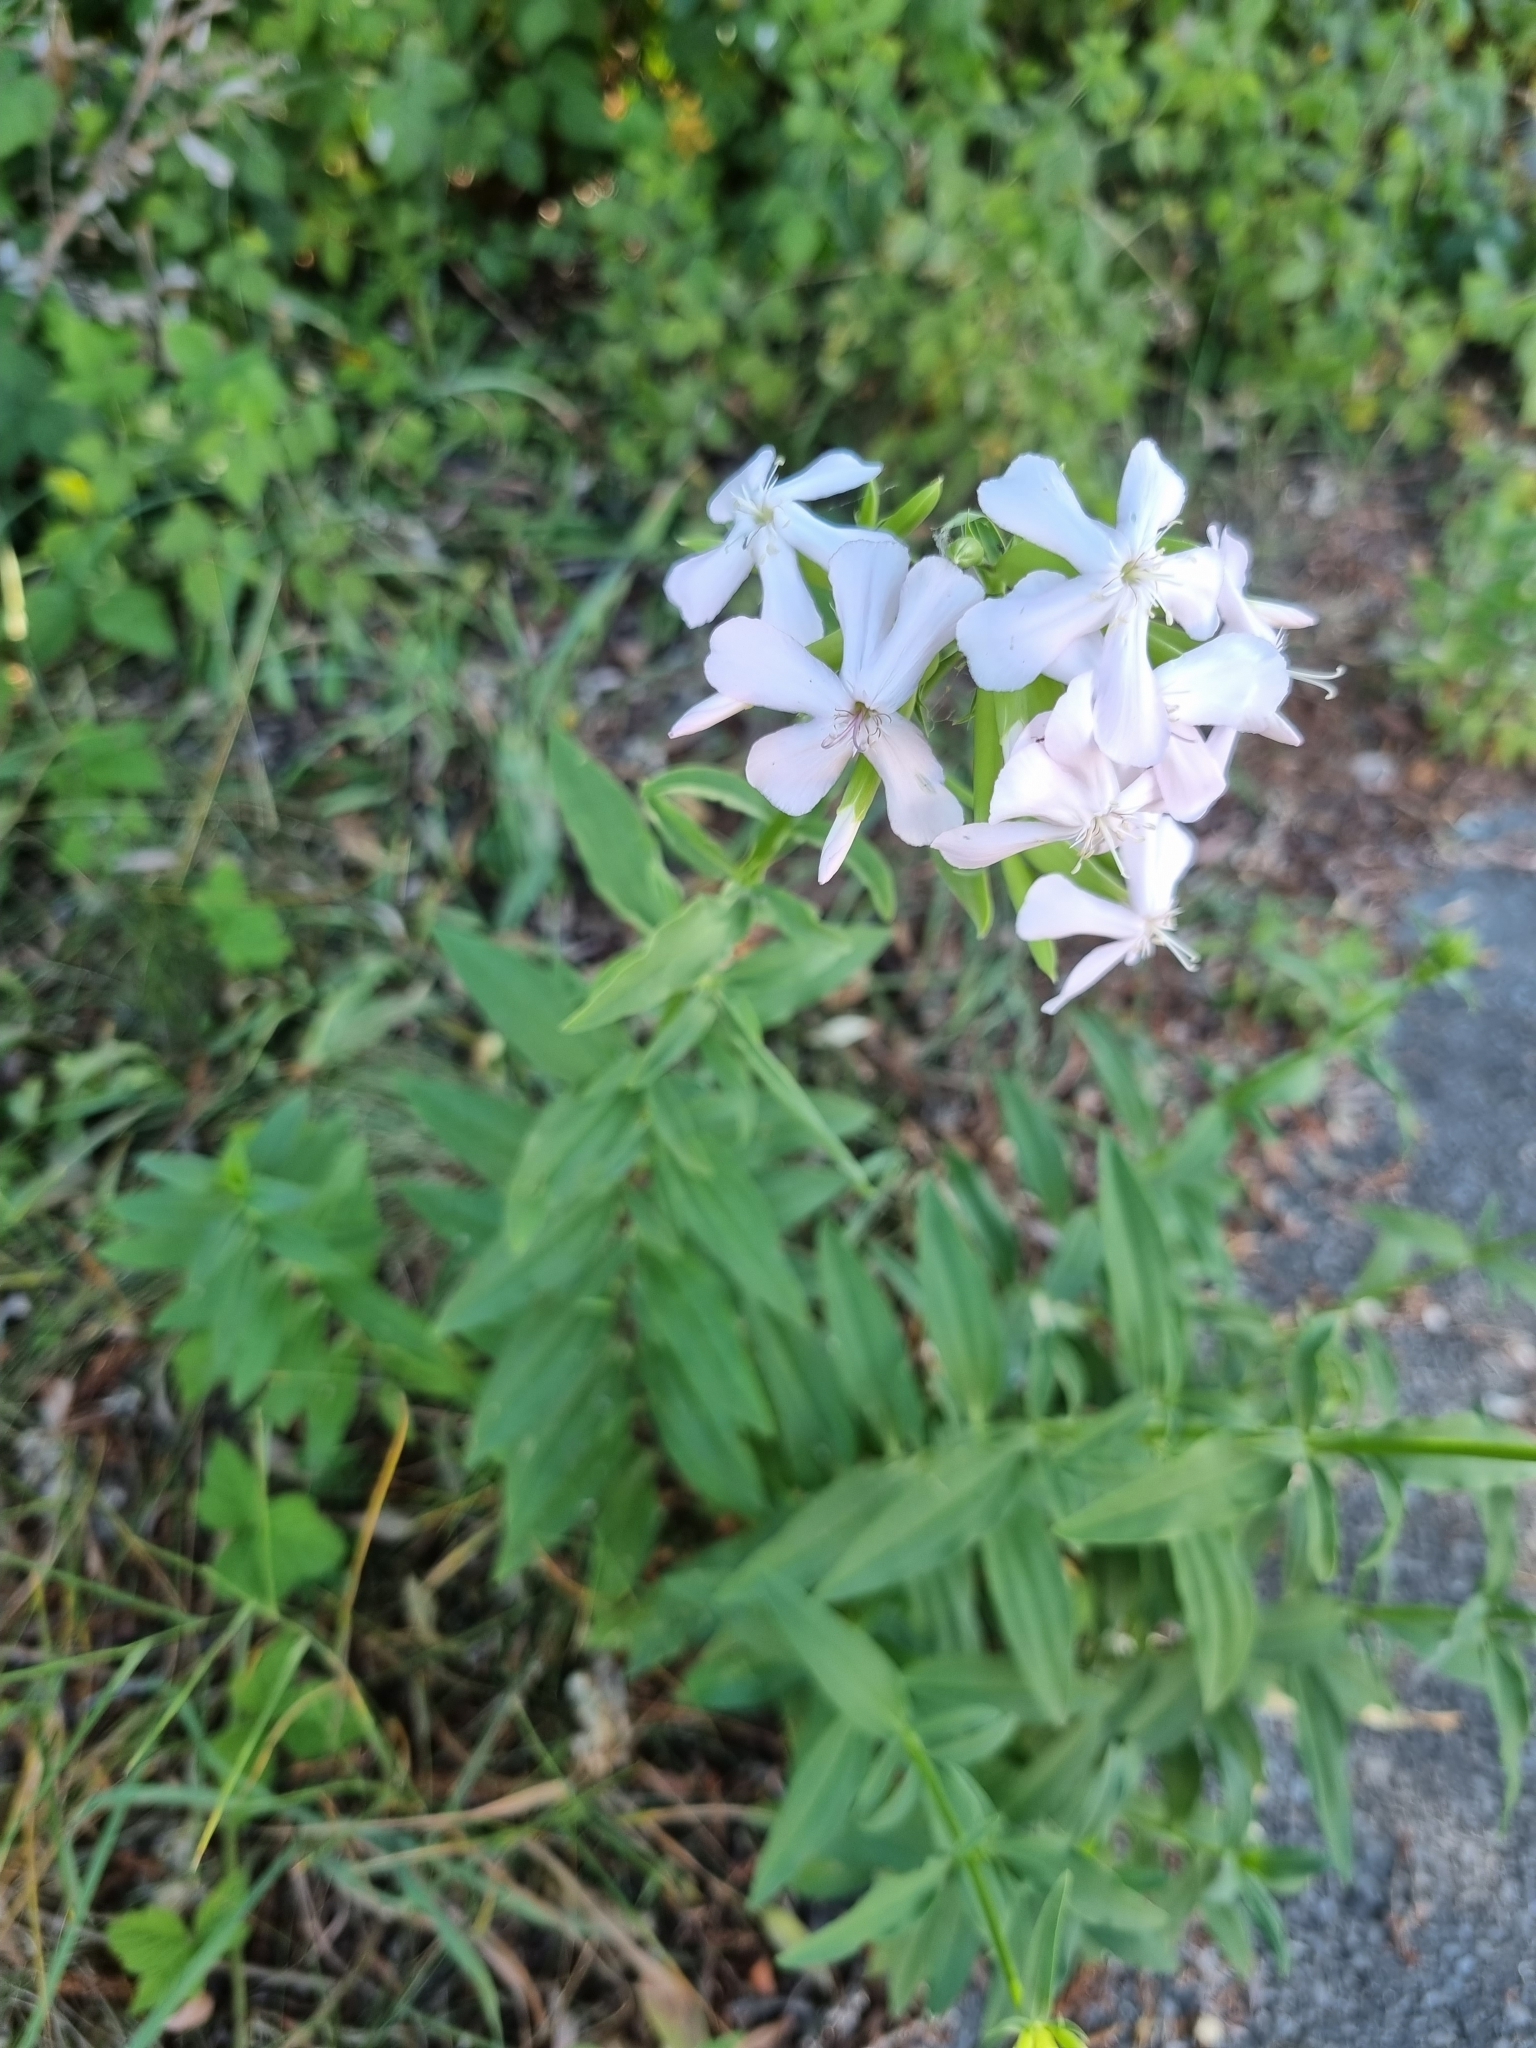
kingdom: Plantae
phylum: Tracheophyta
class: Magnoliopsida
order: Caryophyllales
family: Caryophyllaceae
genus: Saponaria
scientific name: Saponaria officinalis
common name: Soapwort
